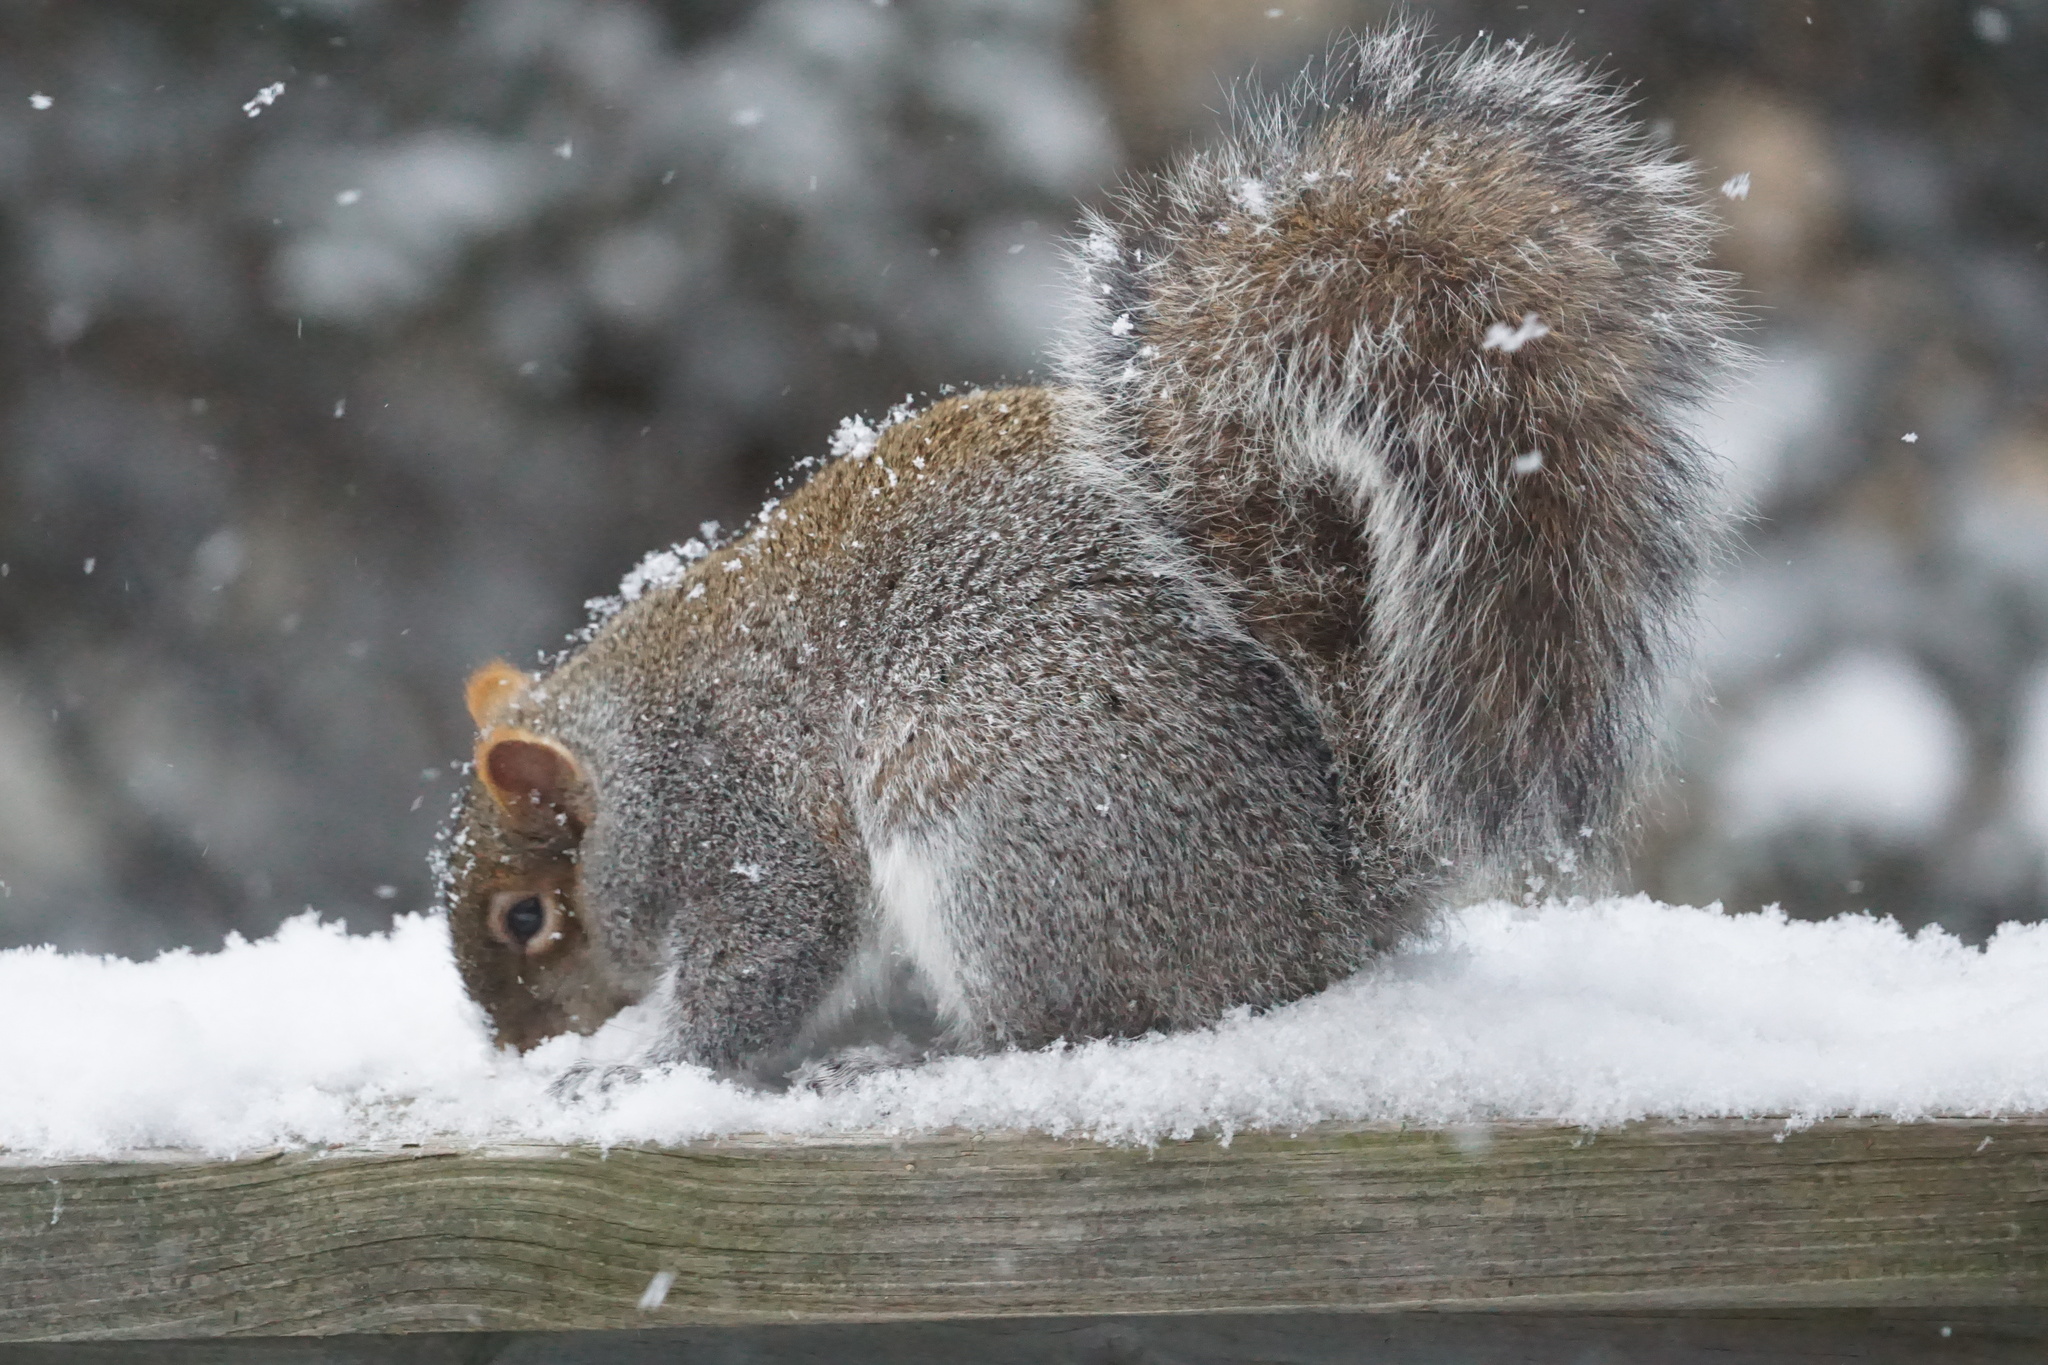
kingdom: Animalia
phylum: Chordata
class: Mammalia
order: Rodentia
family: Sciuridae
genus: Sciurus
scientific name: Sciurus carolinensis
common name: Eastern gray squirrel
